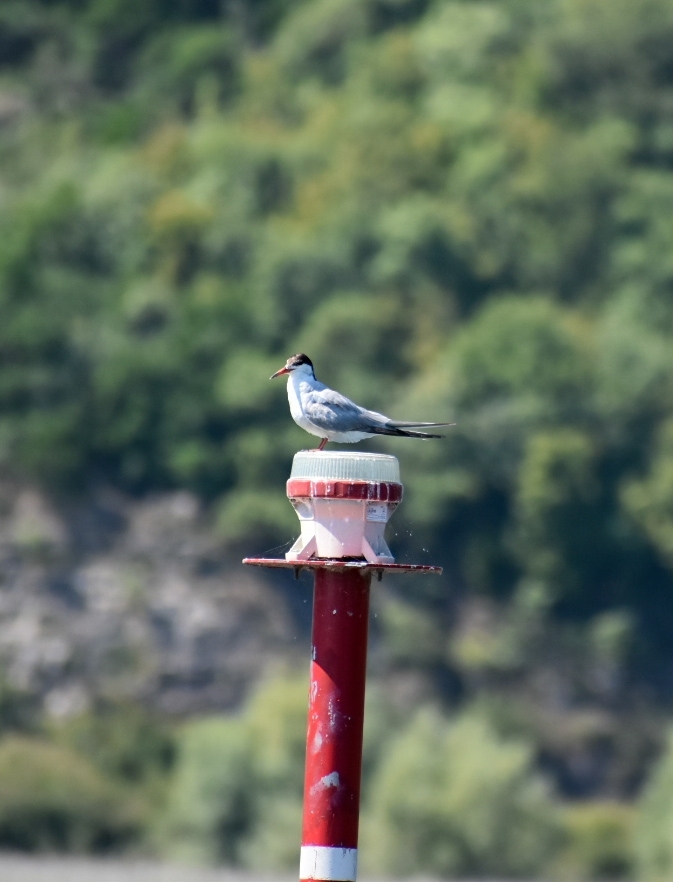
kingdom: Animalia
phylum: Chordata
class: Aves
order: Charadriiformes
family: Laridae
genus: Sterna
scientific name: Sterna hirundo
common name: Common tern
